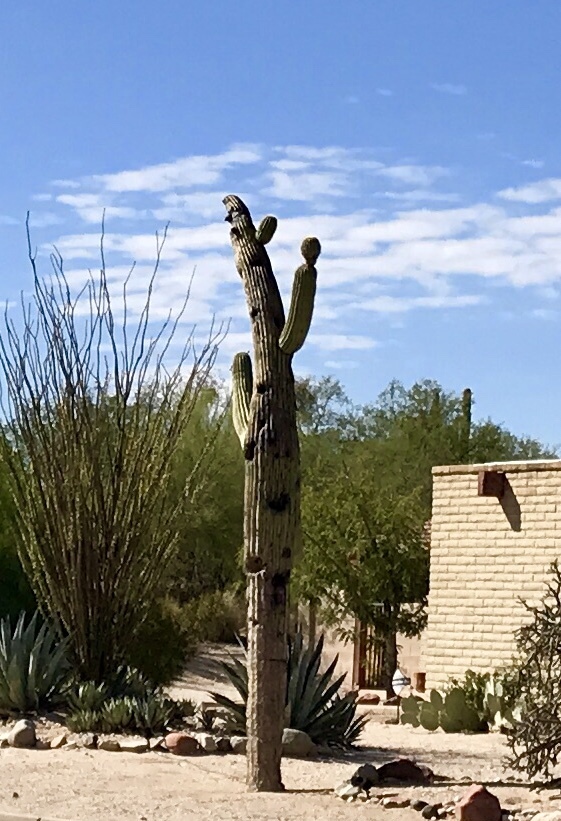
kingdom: Plantae
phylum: Tracheophyta
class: Magnoliopsida
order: Caryophyllales
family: Cactaceae
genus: Carnegiea
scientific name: Carnegiea gigantea
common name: Saguaro
